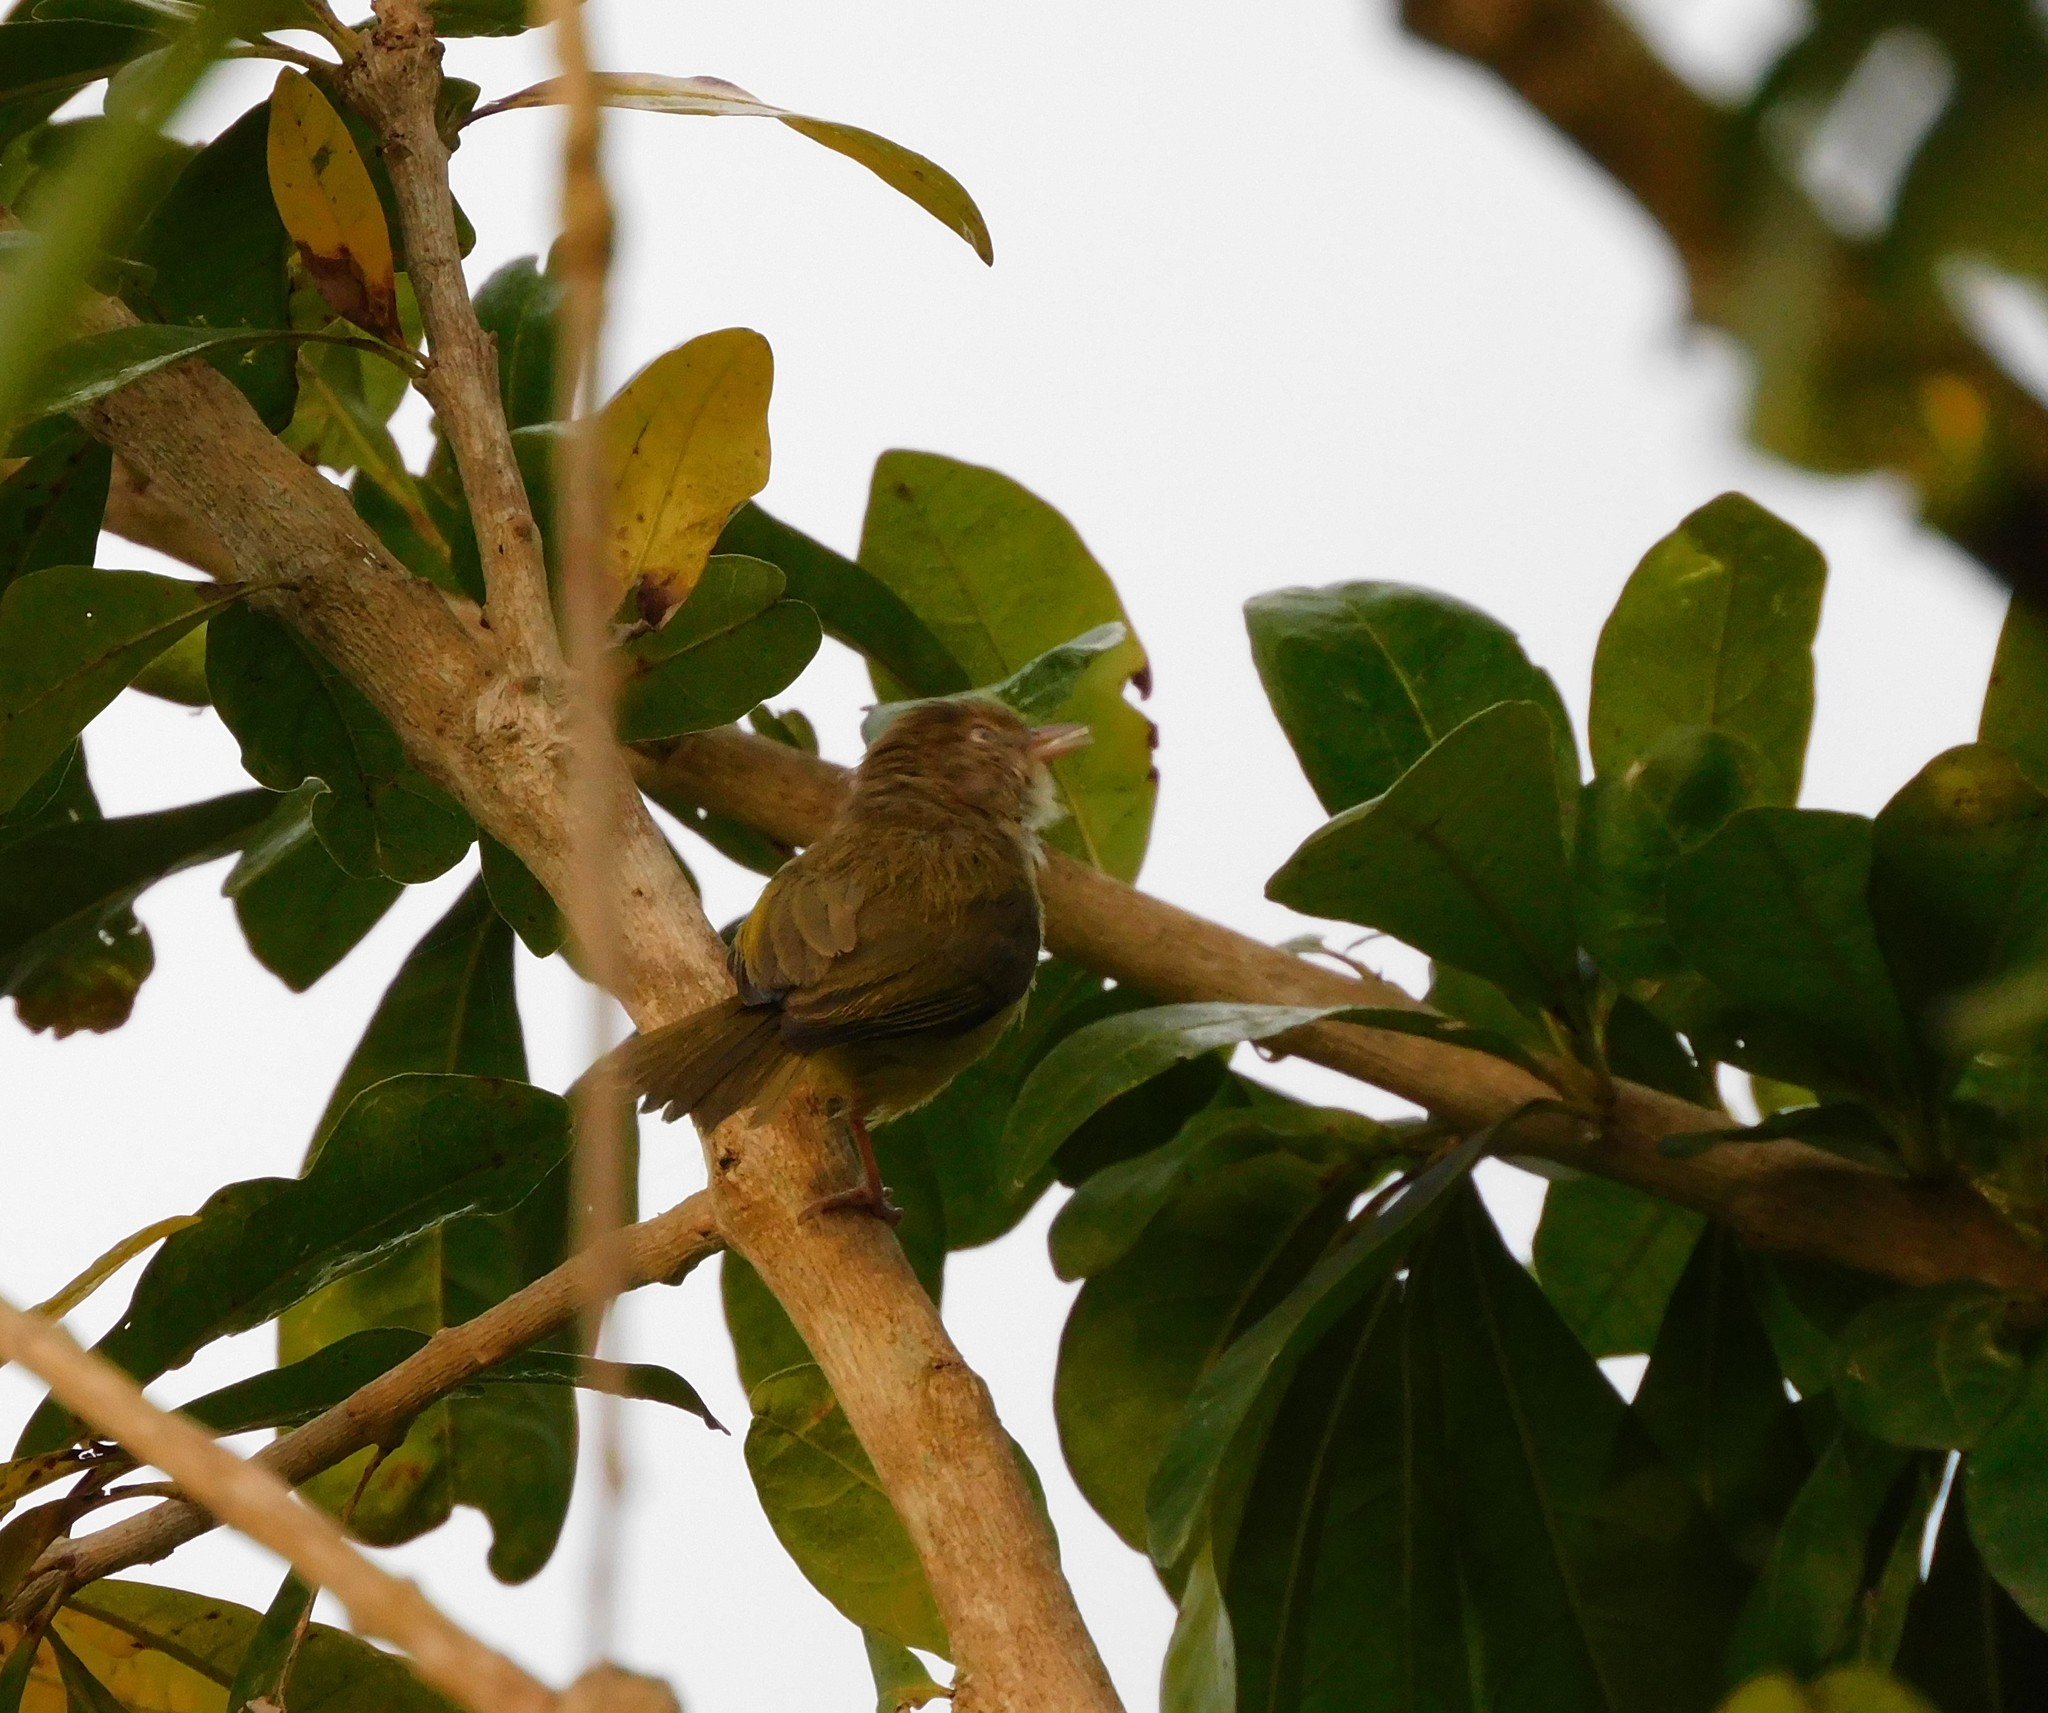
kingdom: Animalia
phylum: Chordata
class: Aves
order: Passeriformes
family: Vireonidae
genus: Hylophilus
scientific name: Hylophilus flavipes
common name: Scrub greenlet
